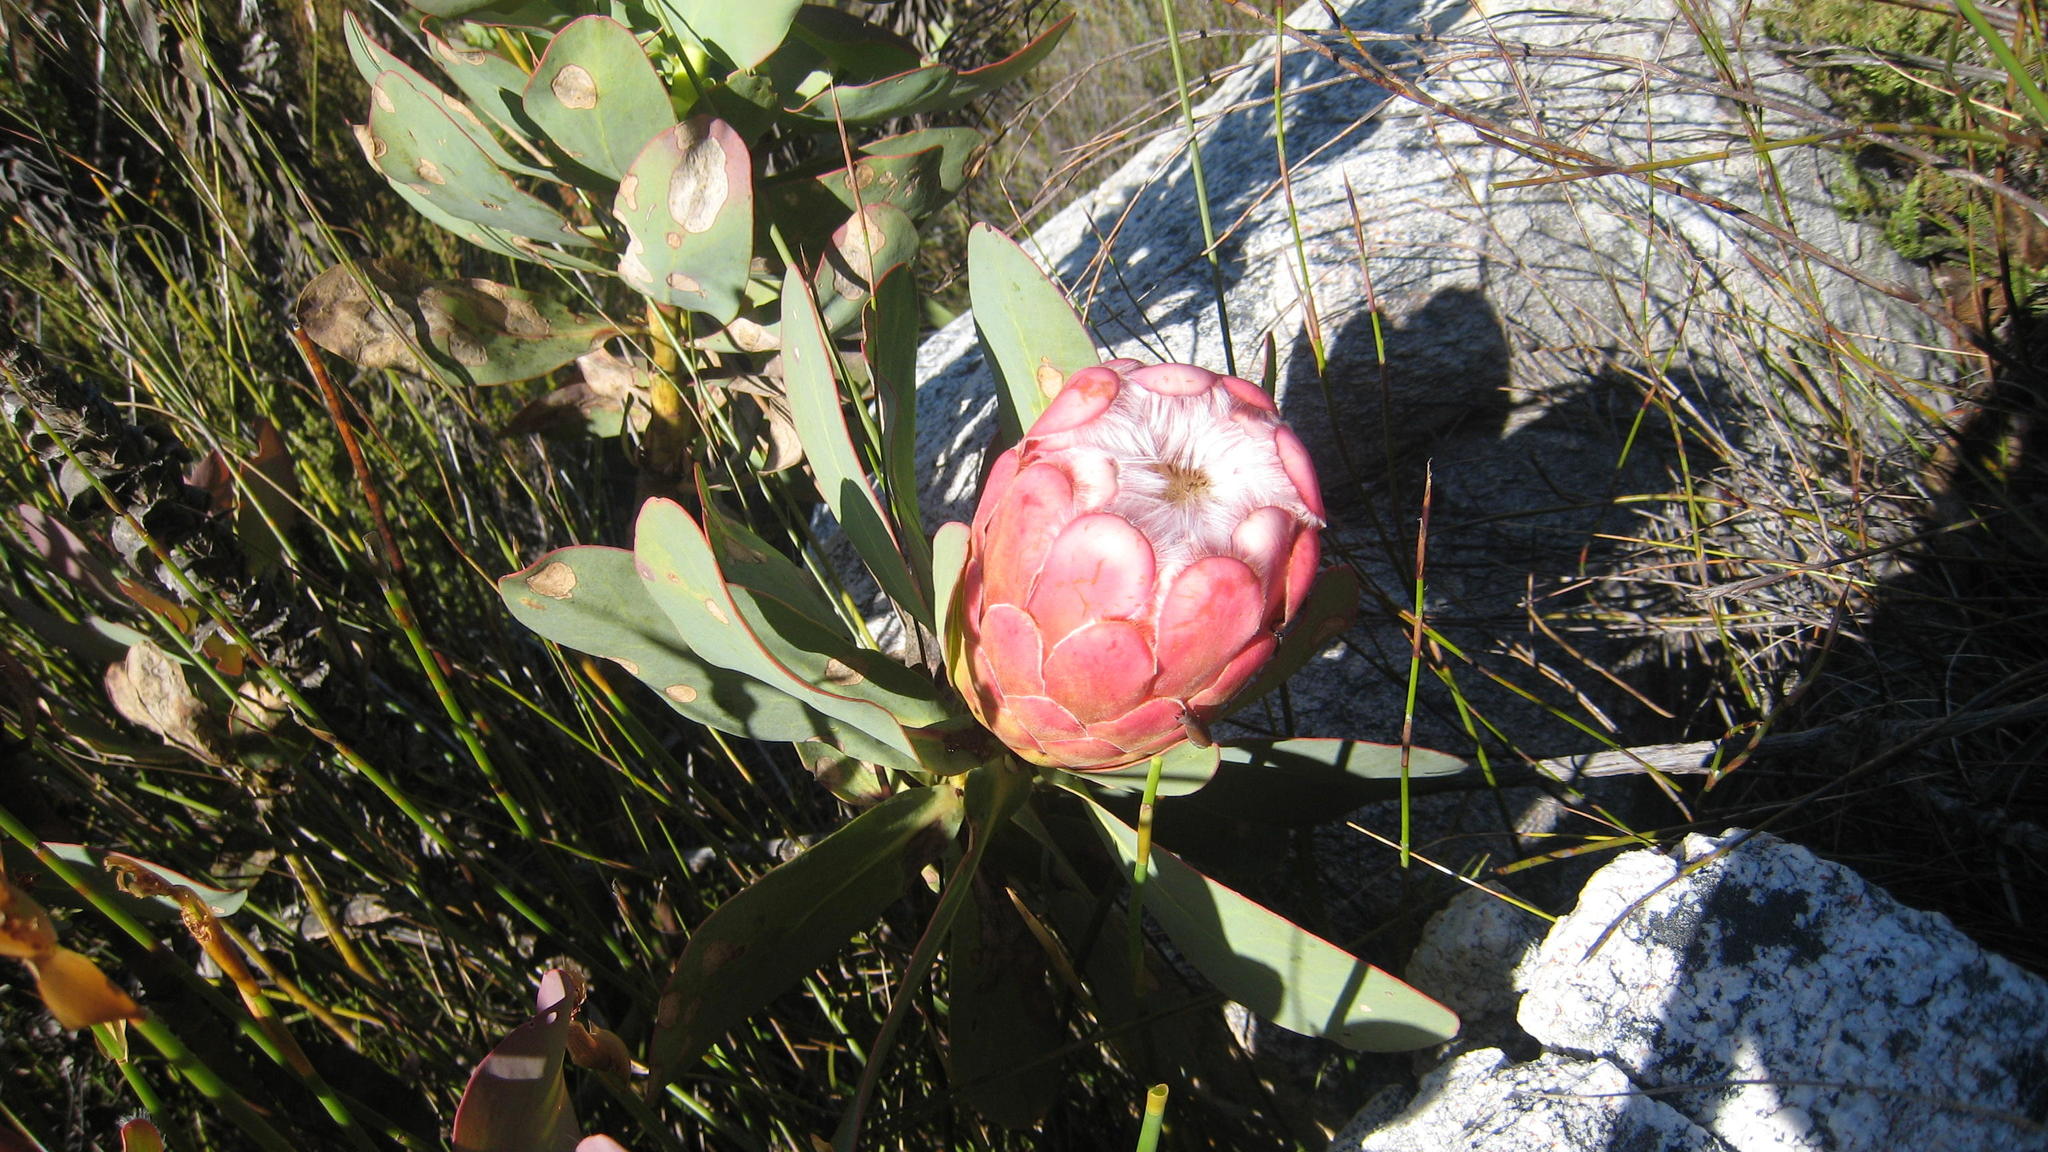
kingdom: Plantae
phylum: Tracheophyta
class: Magnoliopsida
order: Proteales
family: Proteaceae
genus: Protea
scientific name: Protea grandiceps
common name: Red sugarbush
